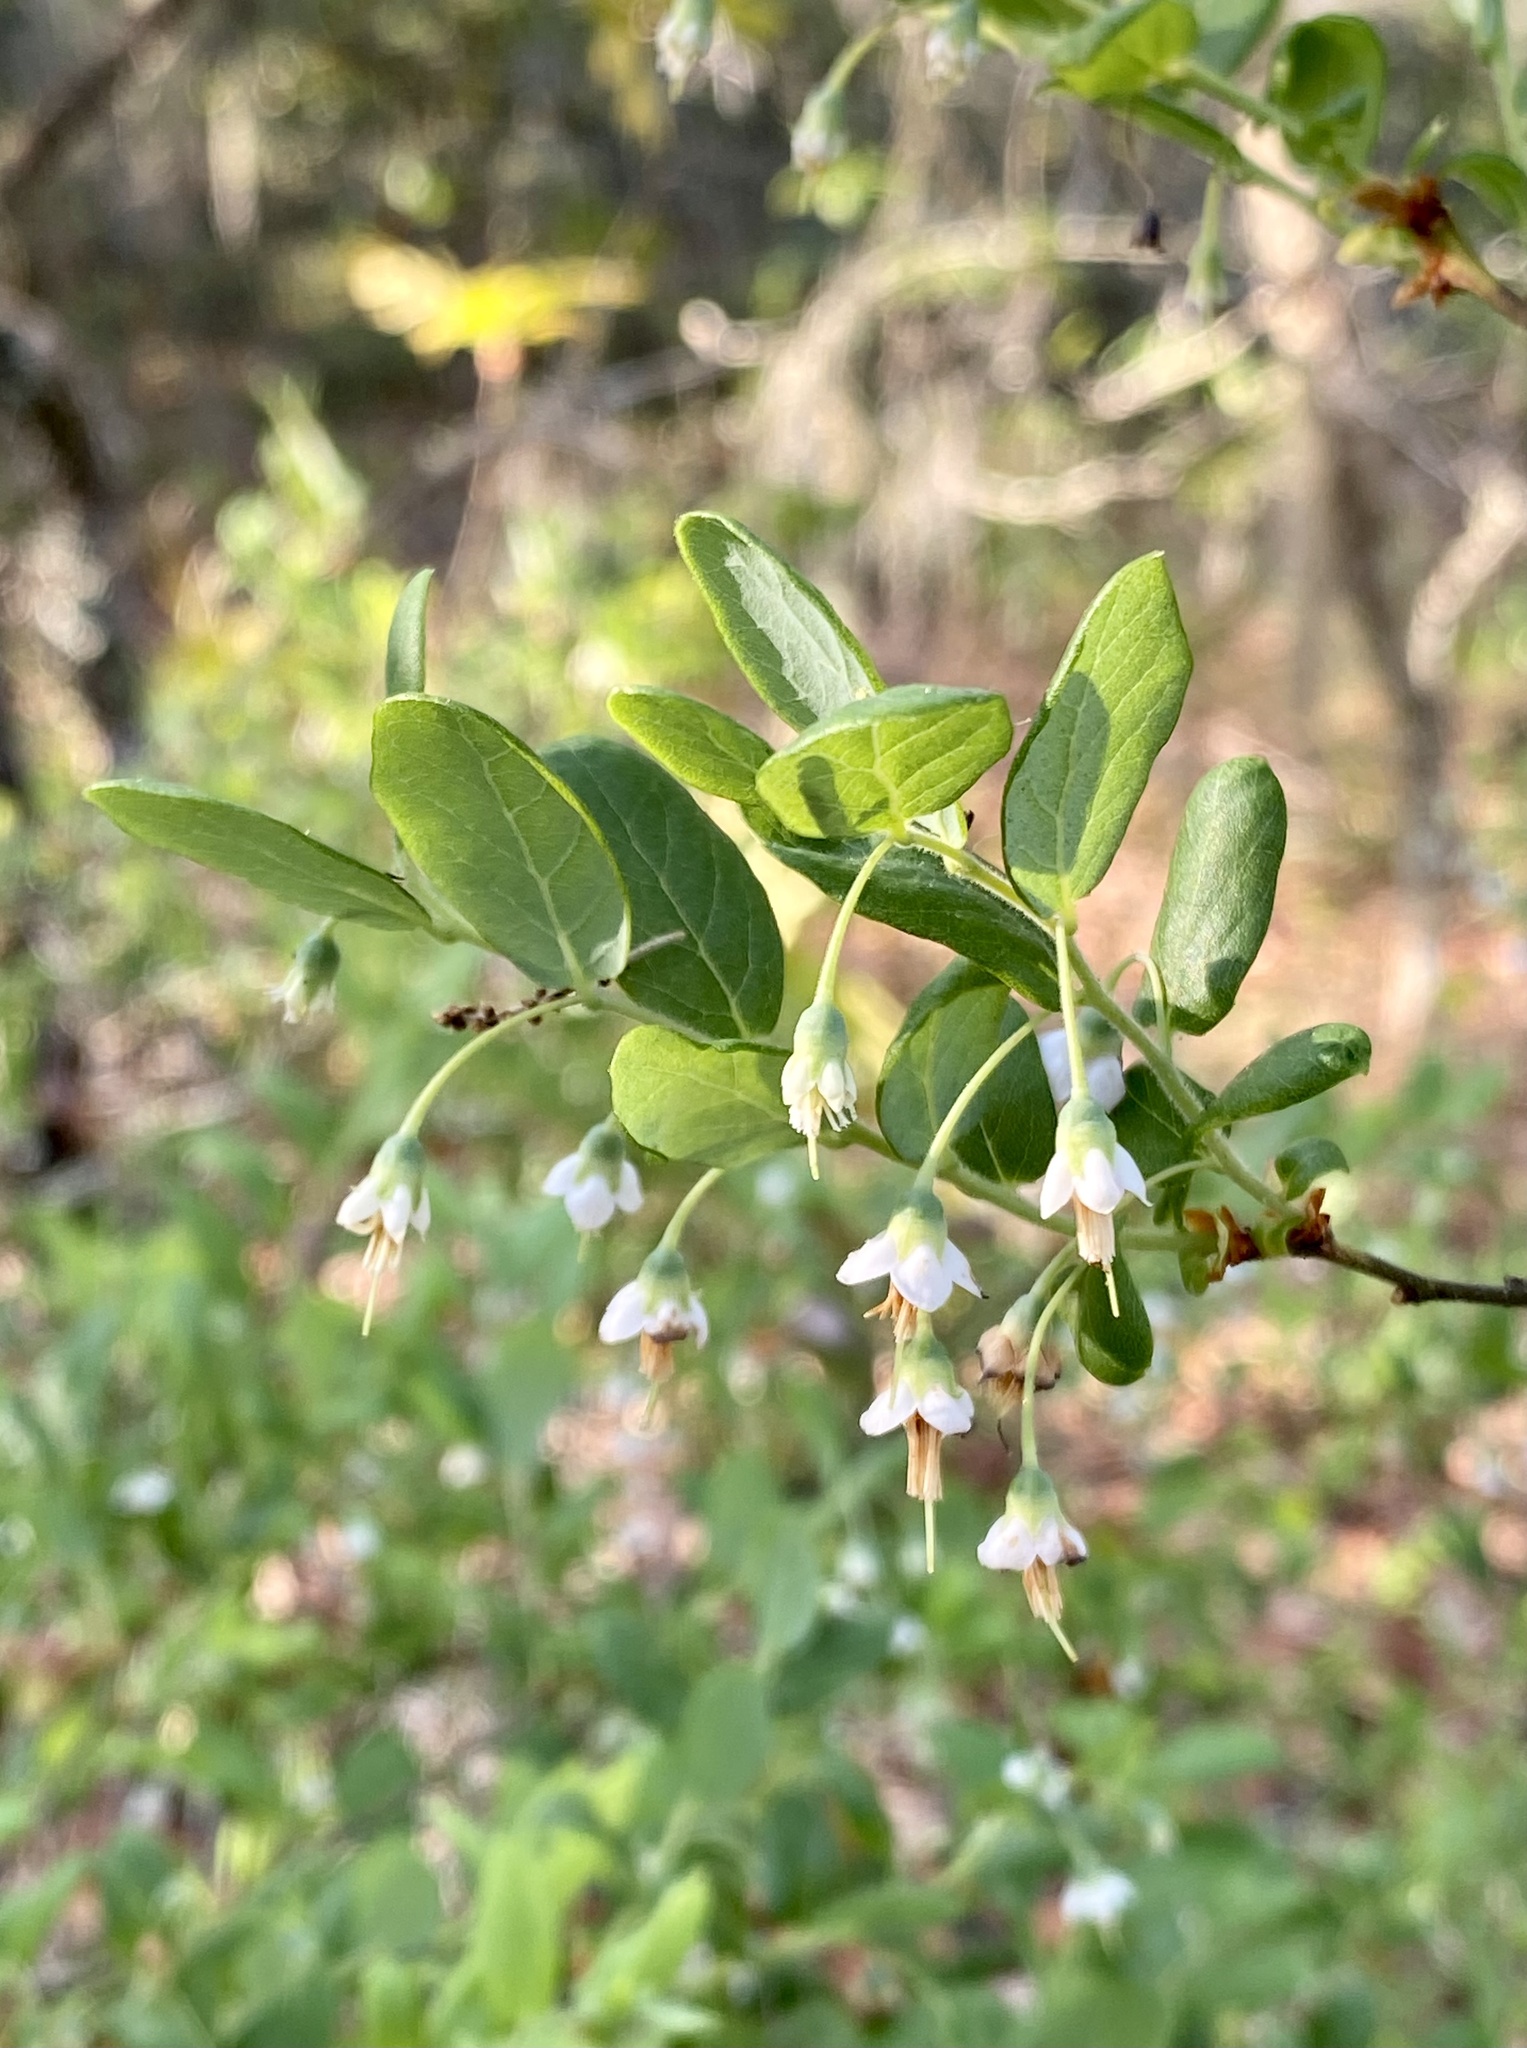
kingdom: Plantae
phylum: Tracheophyta
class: Magnoliopsida
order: Ericales
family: Ericaceae
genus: Vaccinium
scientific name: Vaccinium stamineum
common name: Deerberry
